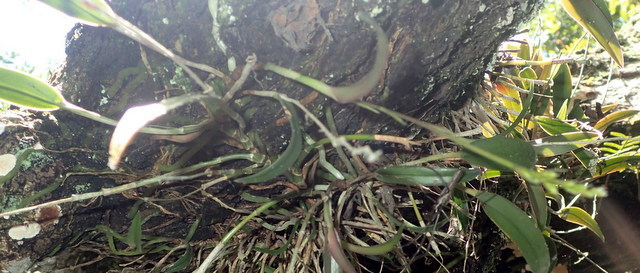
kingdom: Plantae
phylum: Tracheophyta
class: Liliopsida
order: Asparagales
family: Orchidaceae
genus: Epidendrum
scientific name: Epidendrum conopseum
